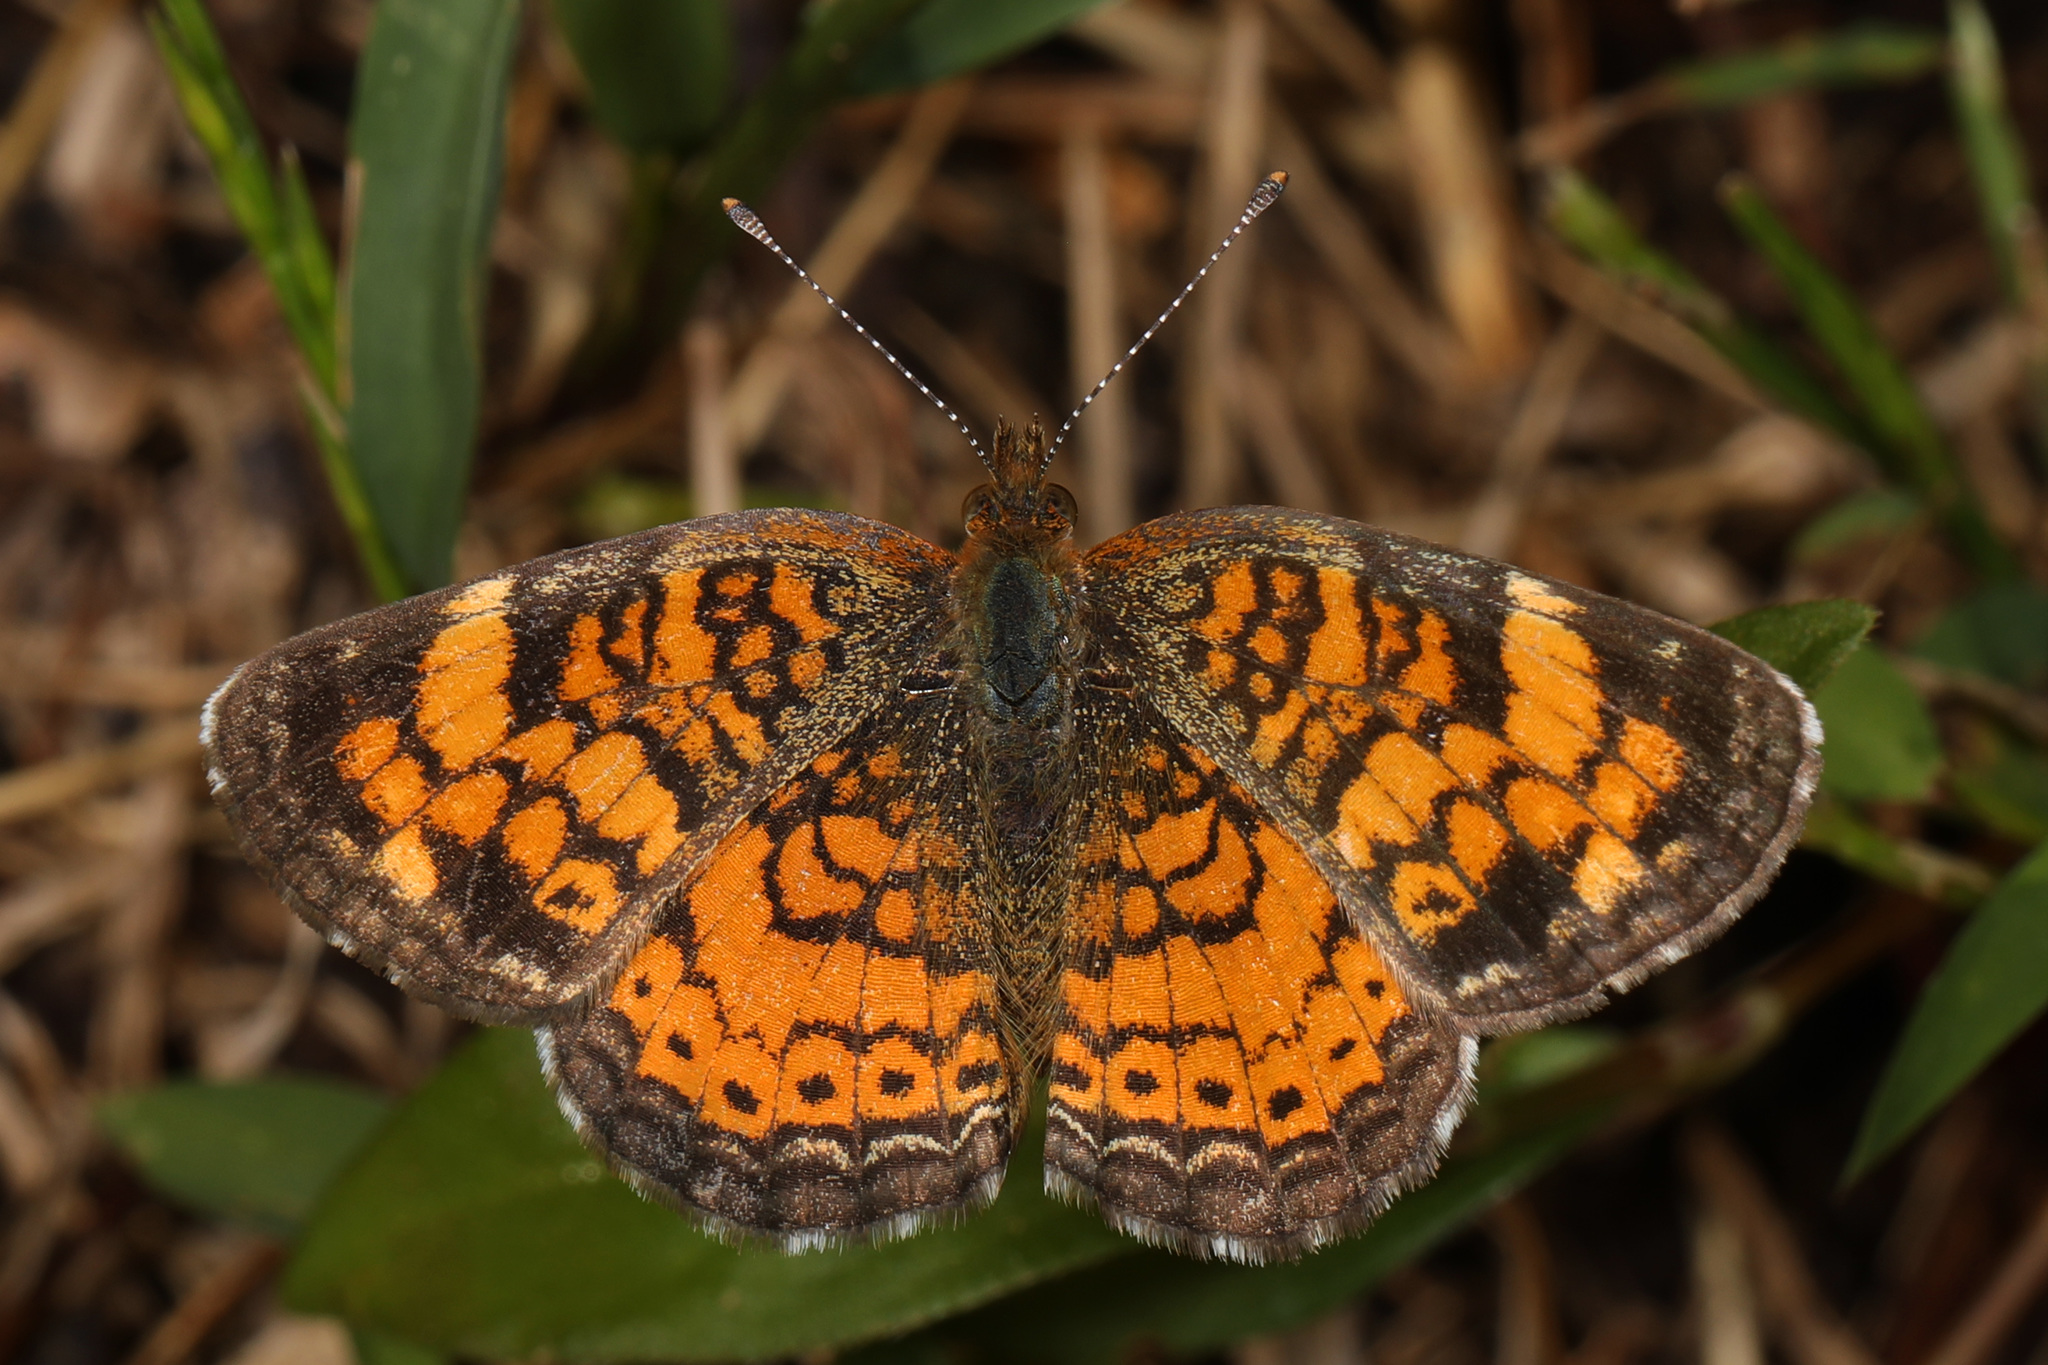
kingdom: Animalia
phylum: Arthropoda
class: Insecta
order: Lepidoptera
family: Nymphalidae
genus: Phyciodes
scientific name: Phyciodes tharos
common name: Pearl crescent
